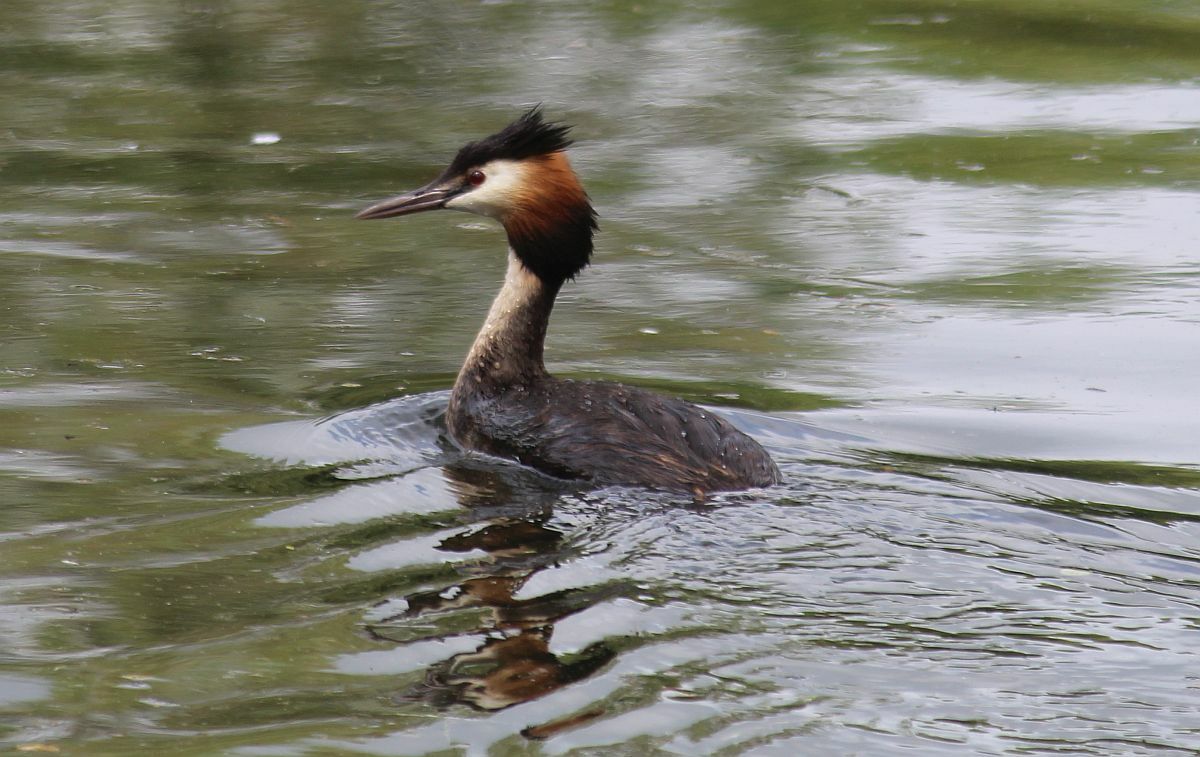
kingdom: Animalia
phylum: Chordata
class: Aves
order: Podicipediformes
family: Podicipedidae
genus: Podiceps
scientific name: Podiceps cristatus
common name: Great crested grebe
